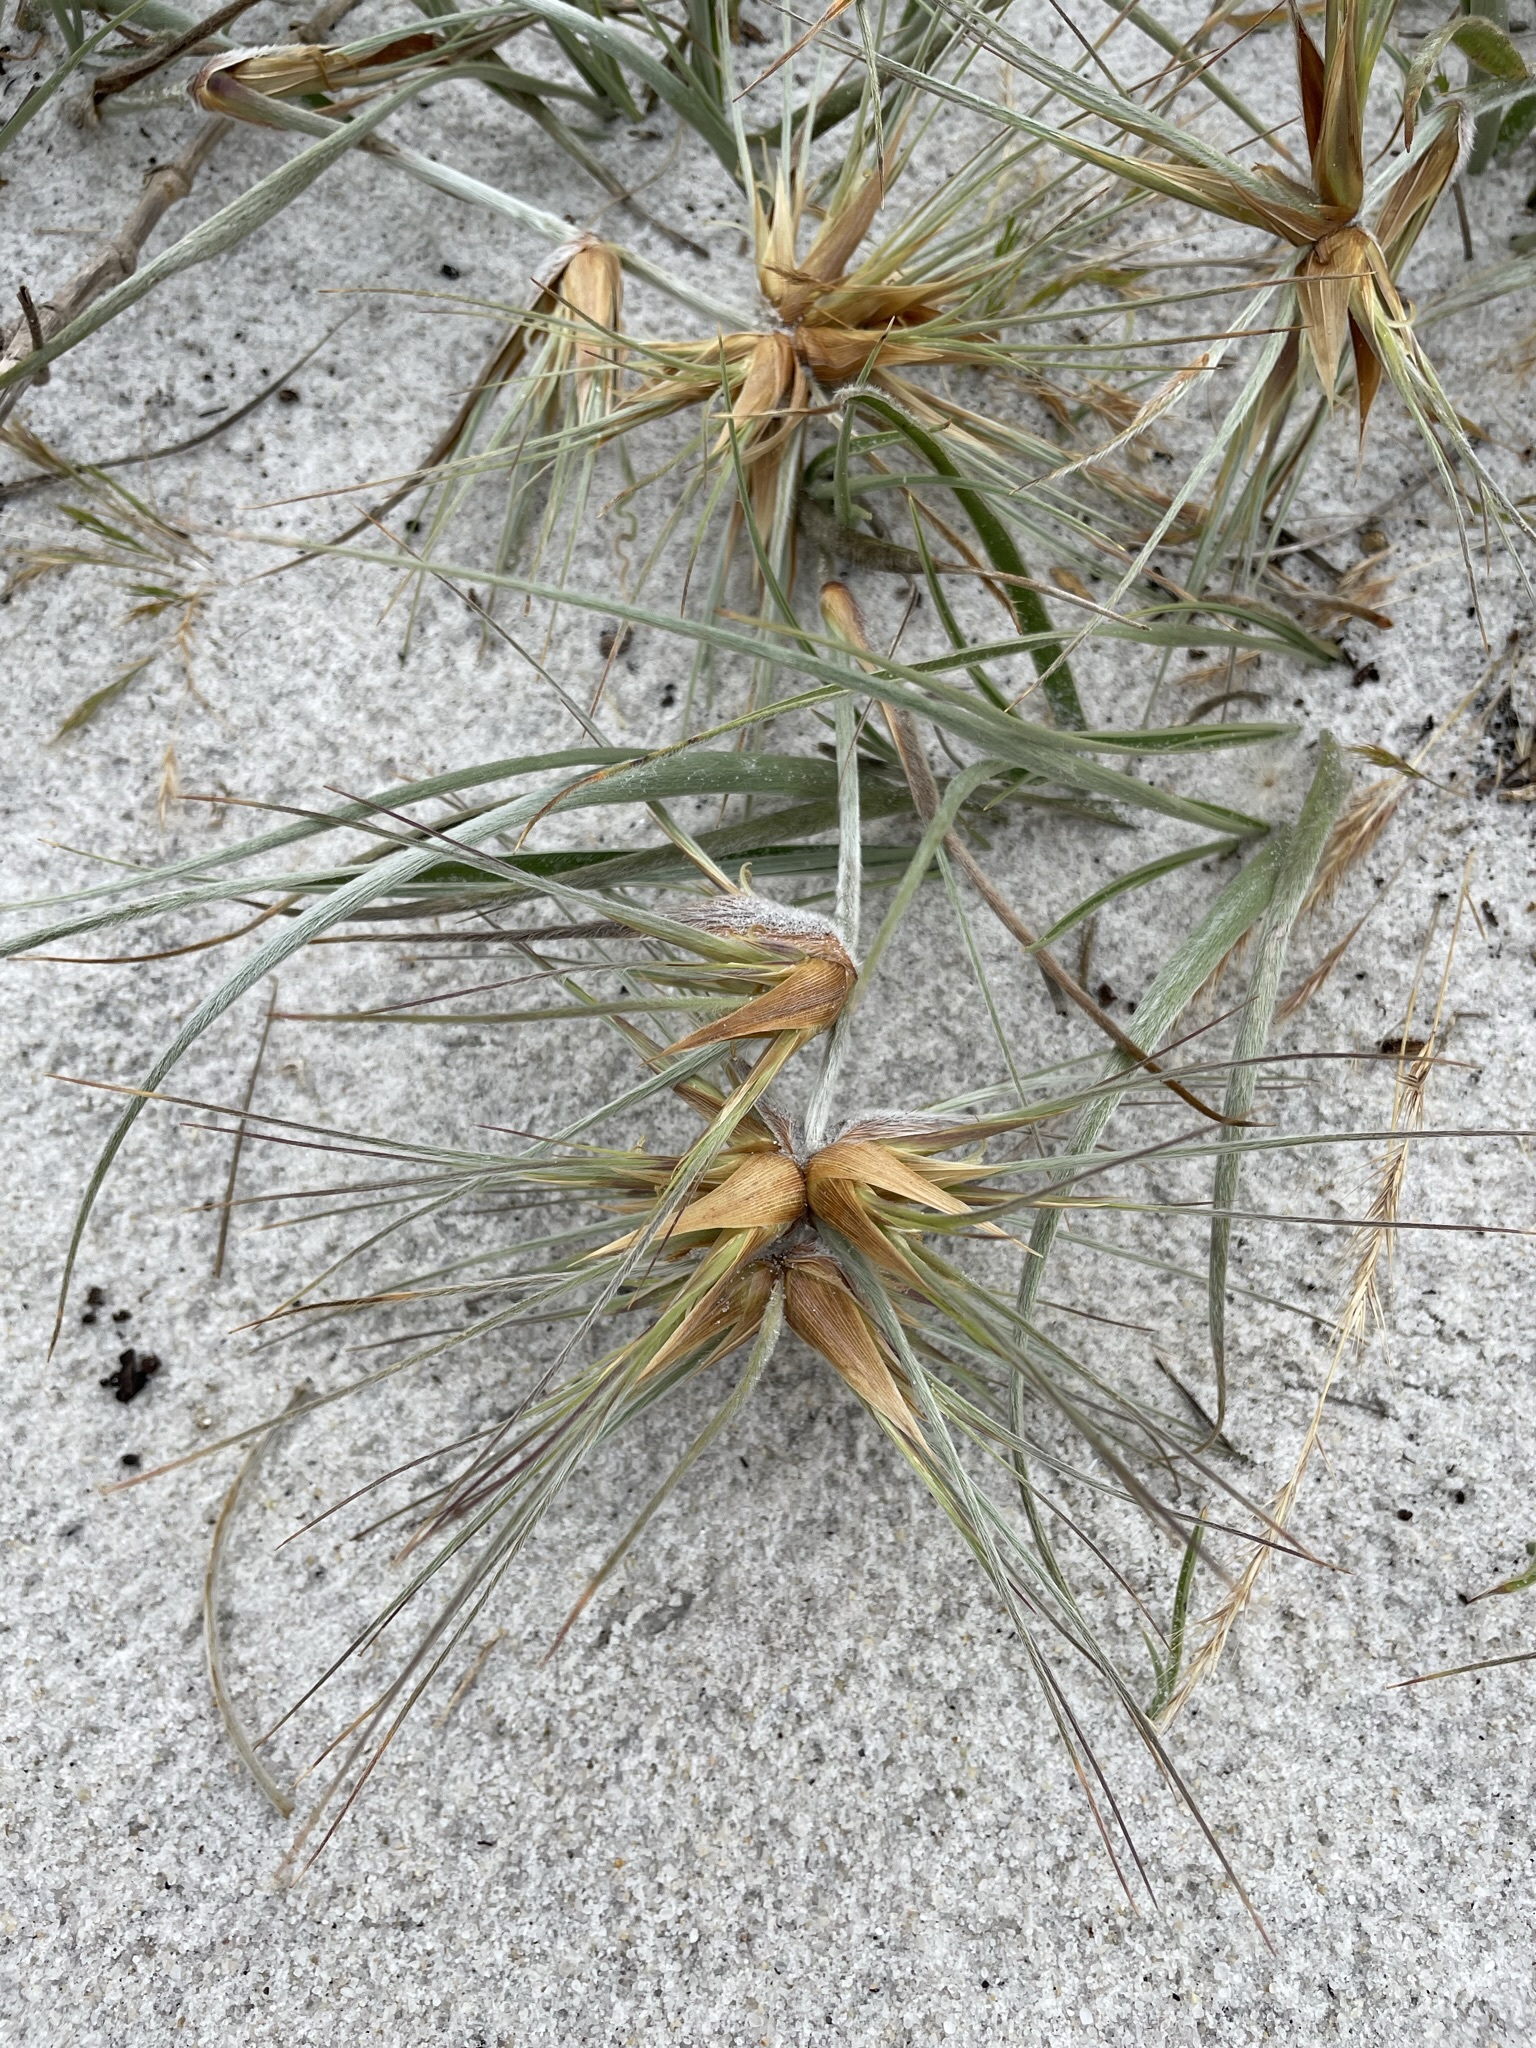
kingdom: Plantae
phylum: Tracheophyta
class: Liliopsida
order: Poales
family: Poaceae
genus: Spinifex
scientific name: Spinifex sericeus
